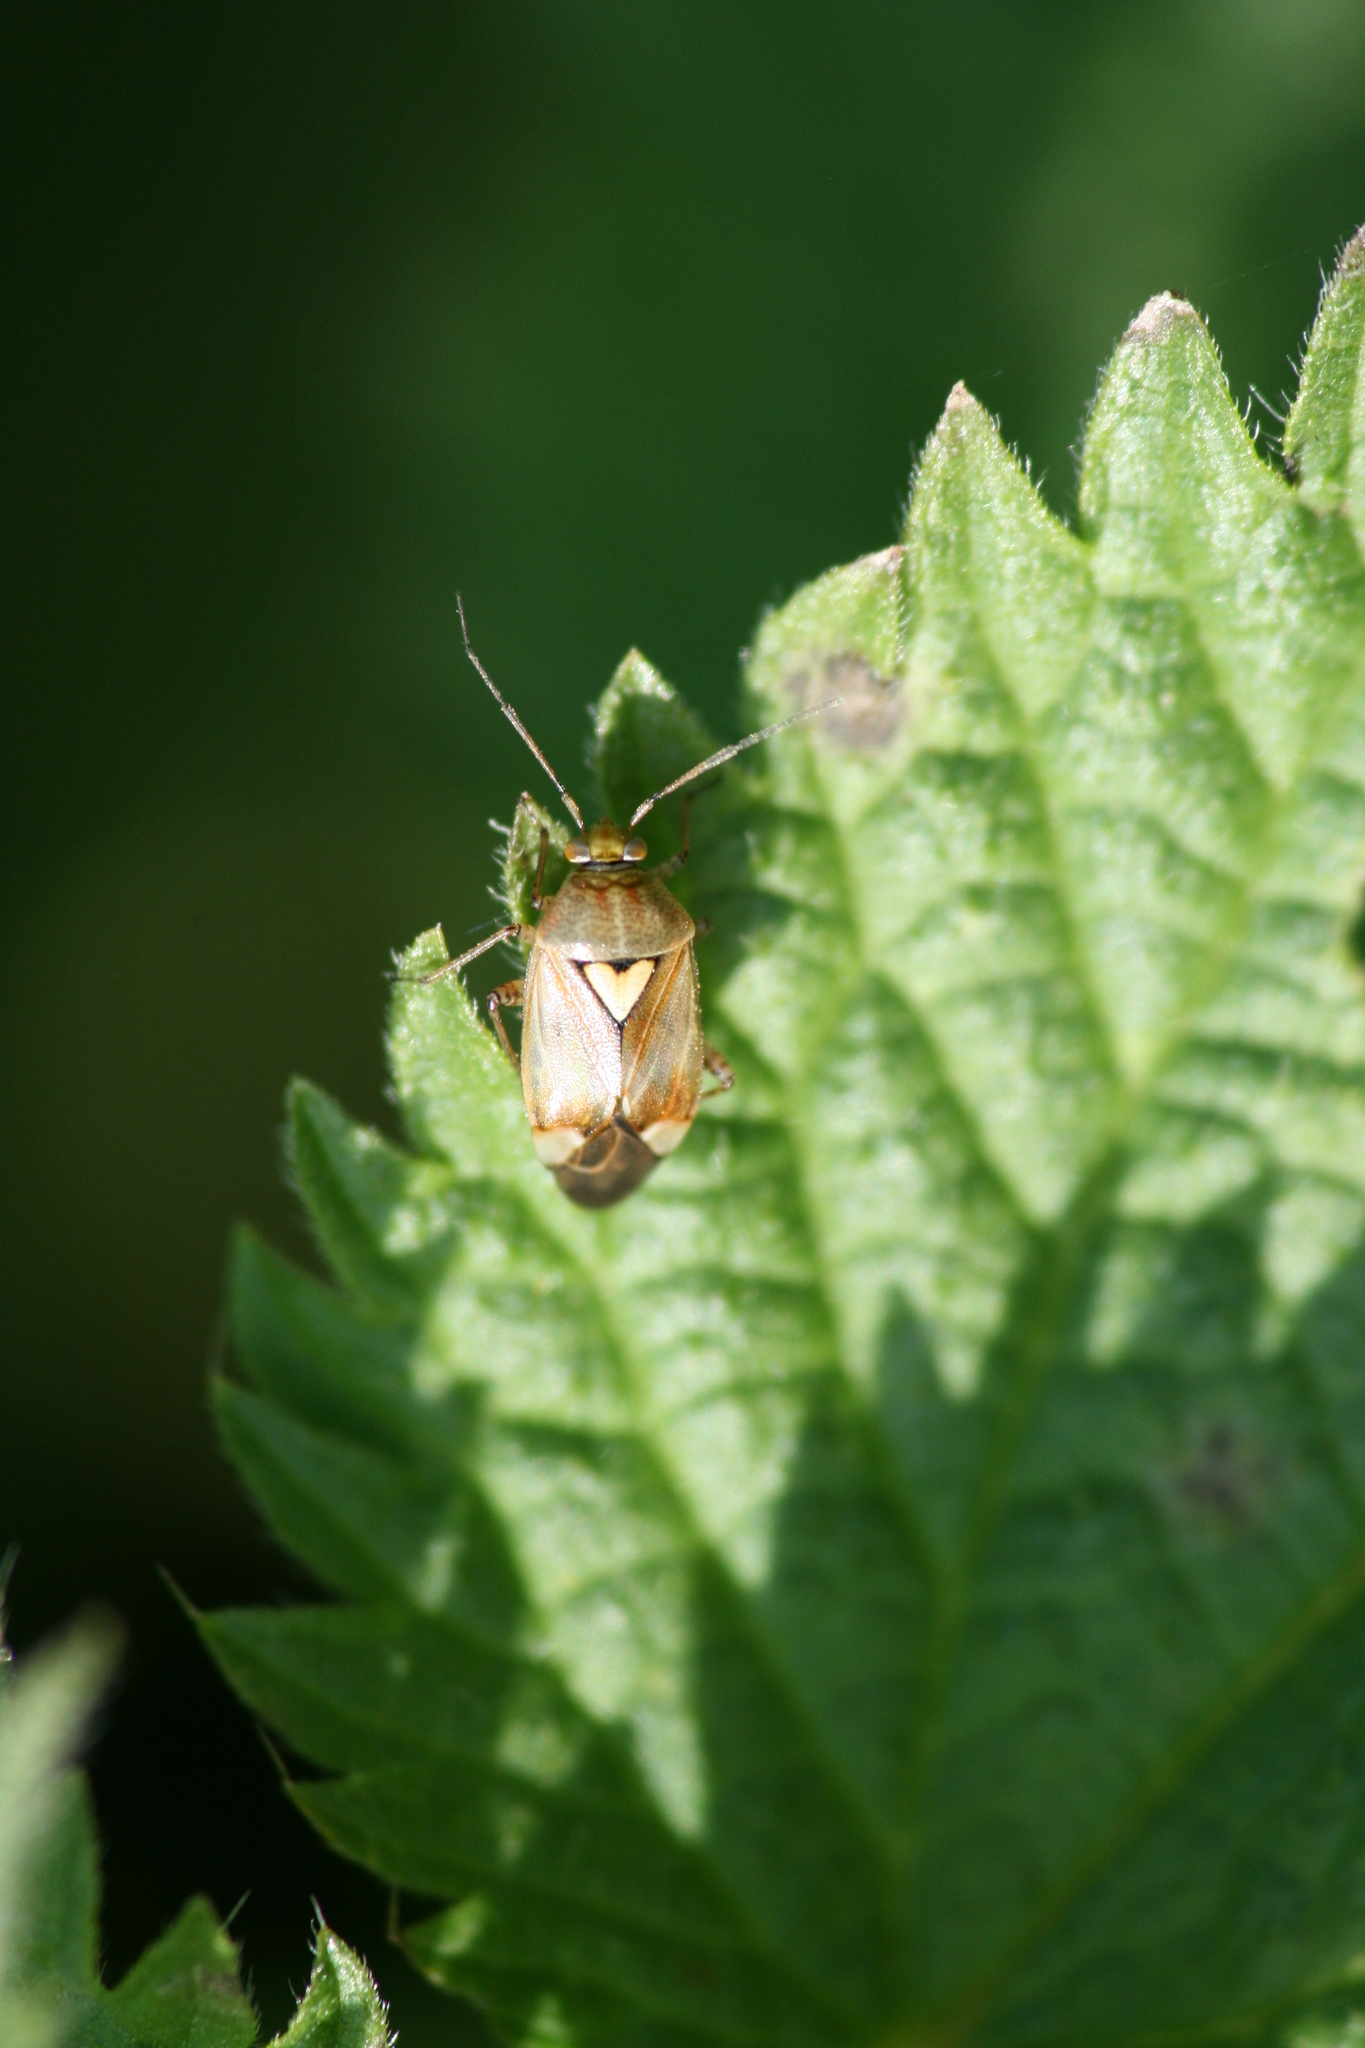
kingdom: Animalia
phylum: Arthropoda
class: Insecta
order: Hemiptera
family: Miridae
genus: Lygus
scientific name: Lygus rugulipennis
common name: European tarnished plant bug
